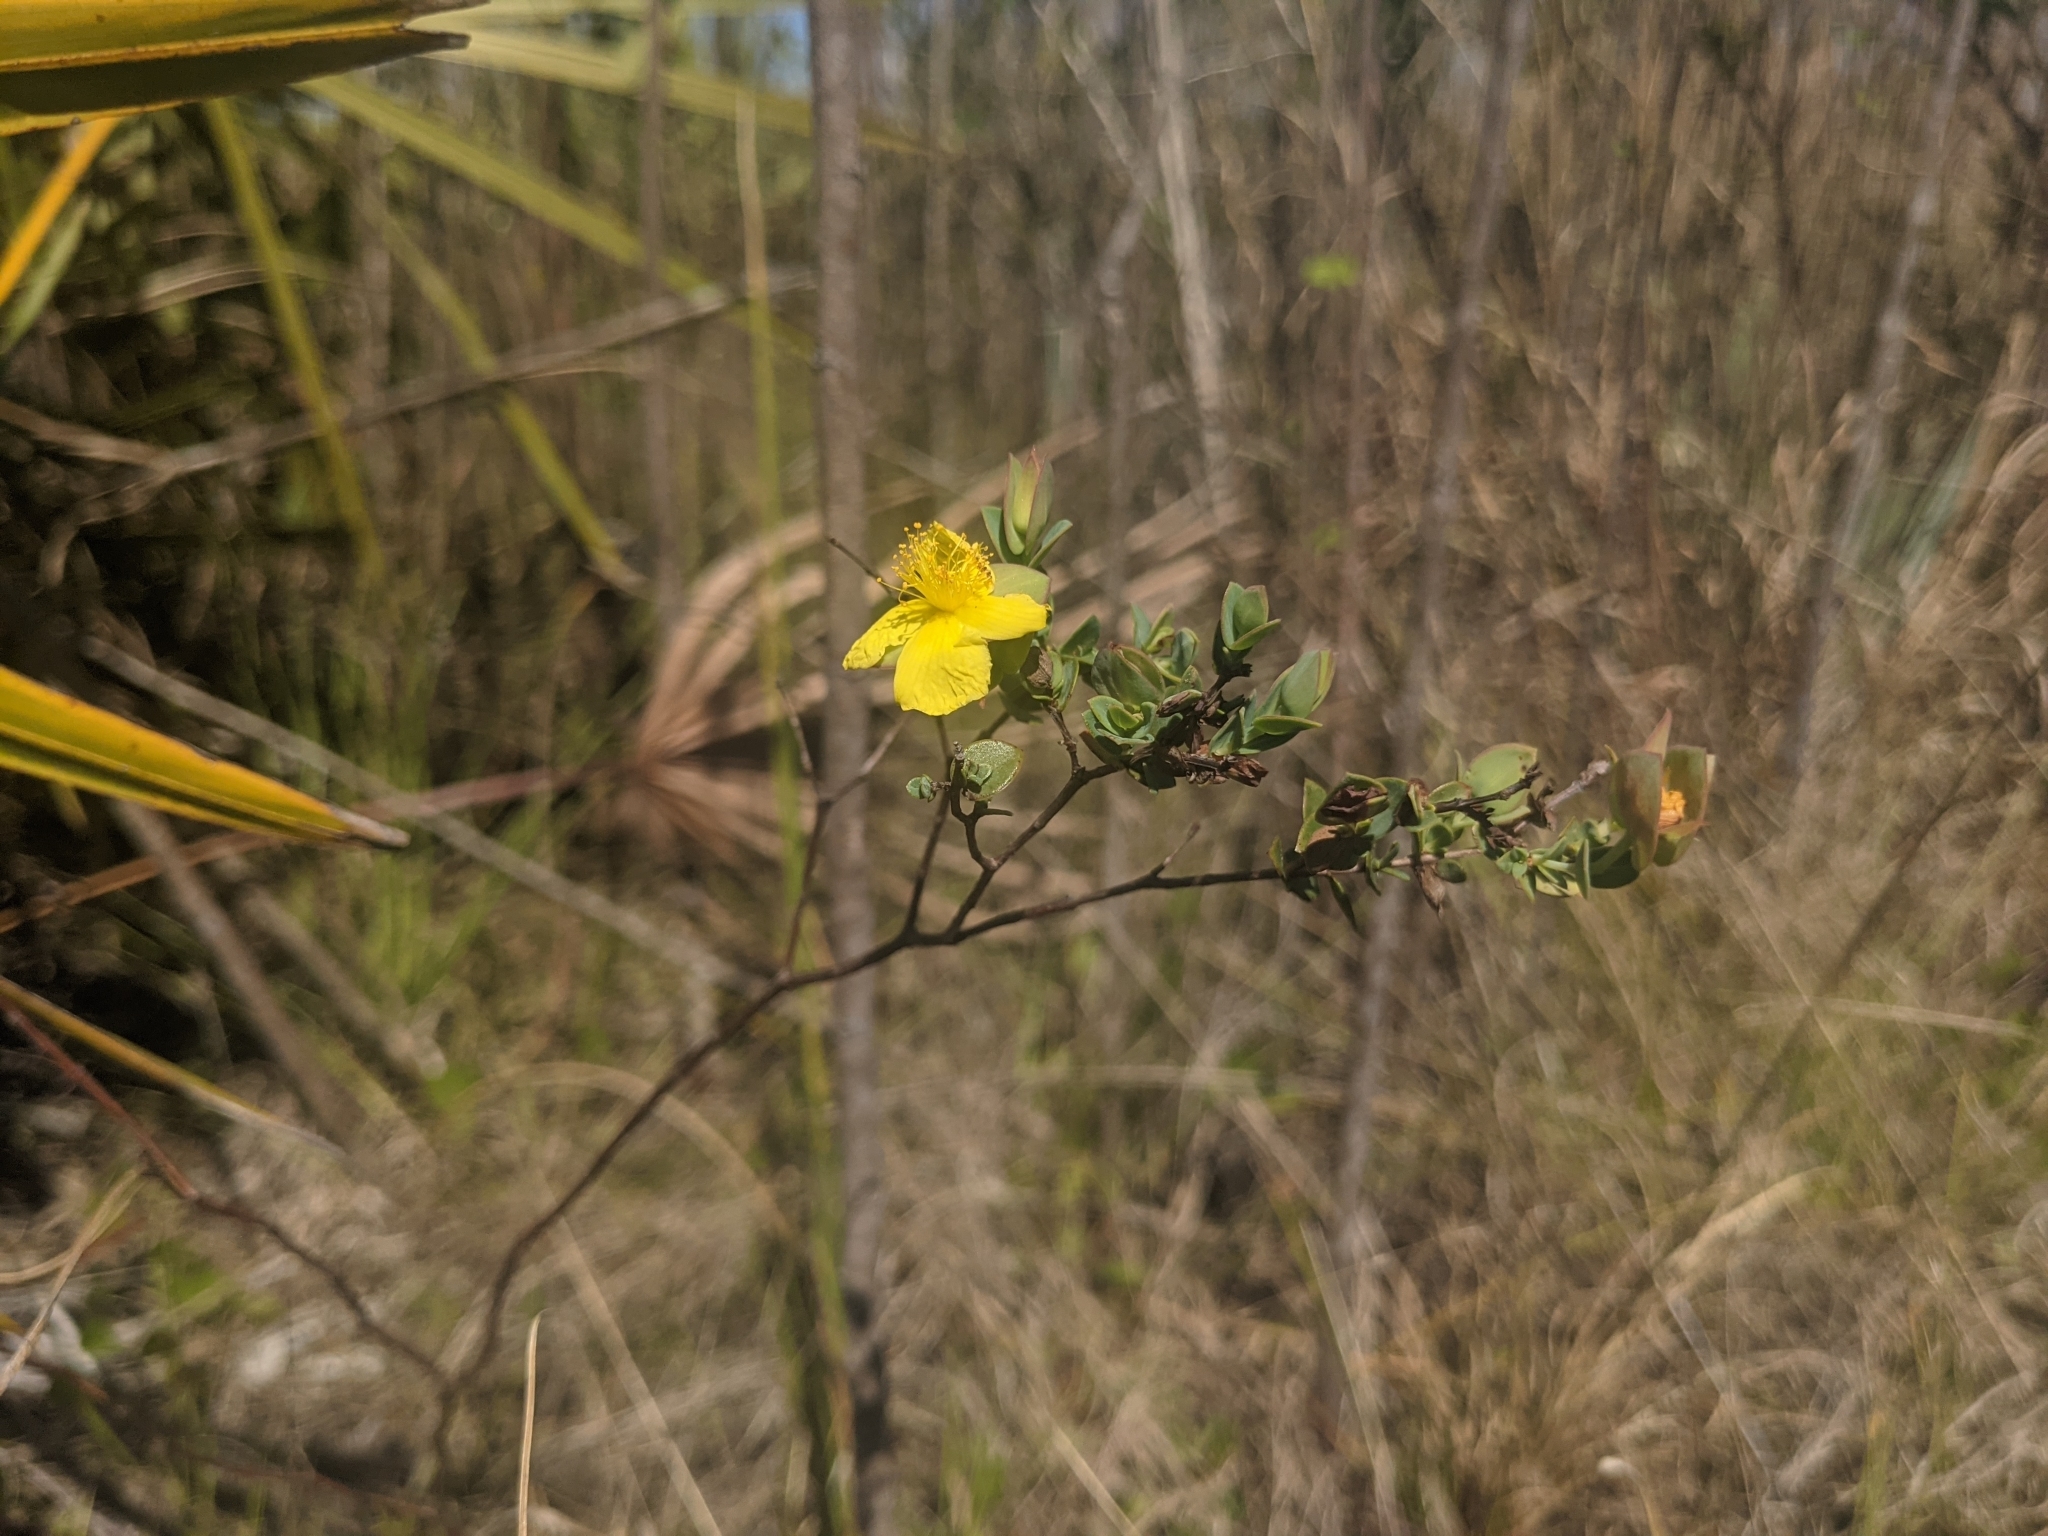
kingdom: Plantae
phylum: Tracheophyta
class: Magnoliopsida
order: Malpighiales
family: Hypericaceae
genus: Hypericum
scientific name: Hypericum tetrapetalum
